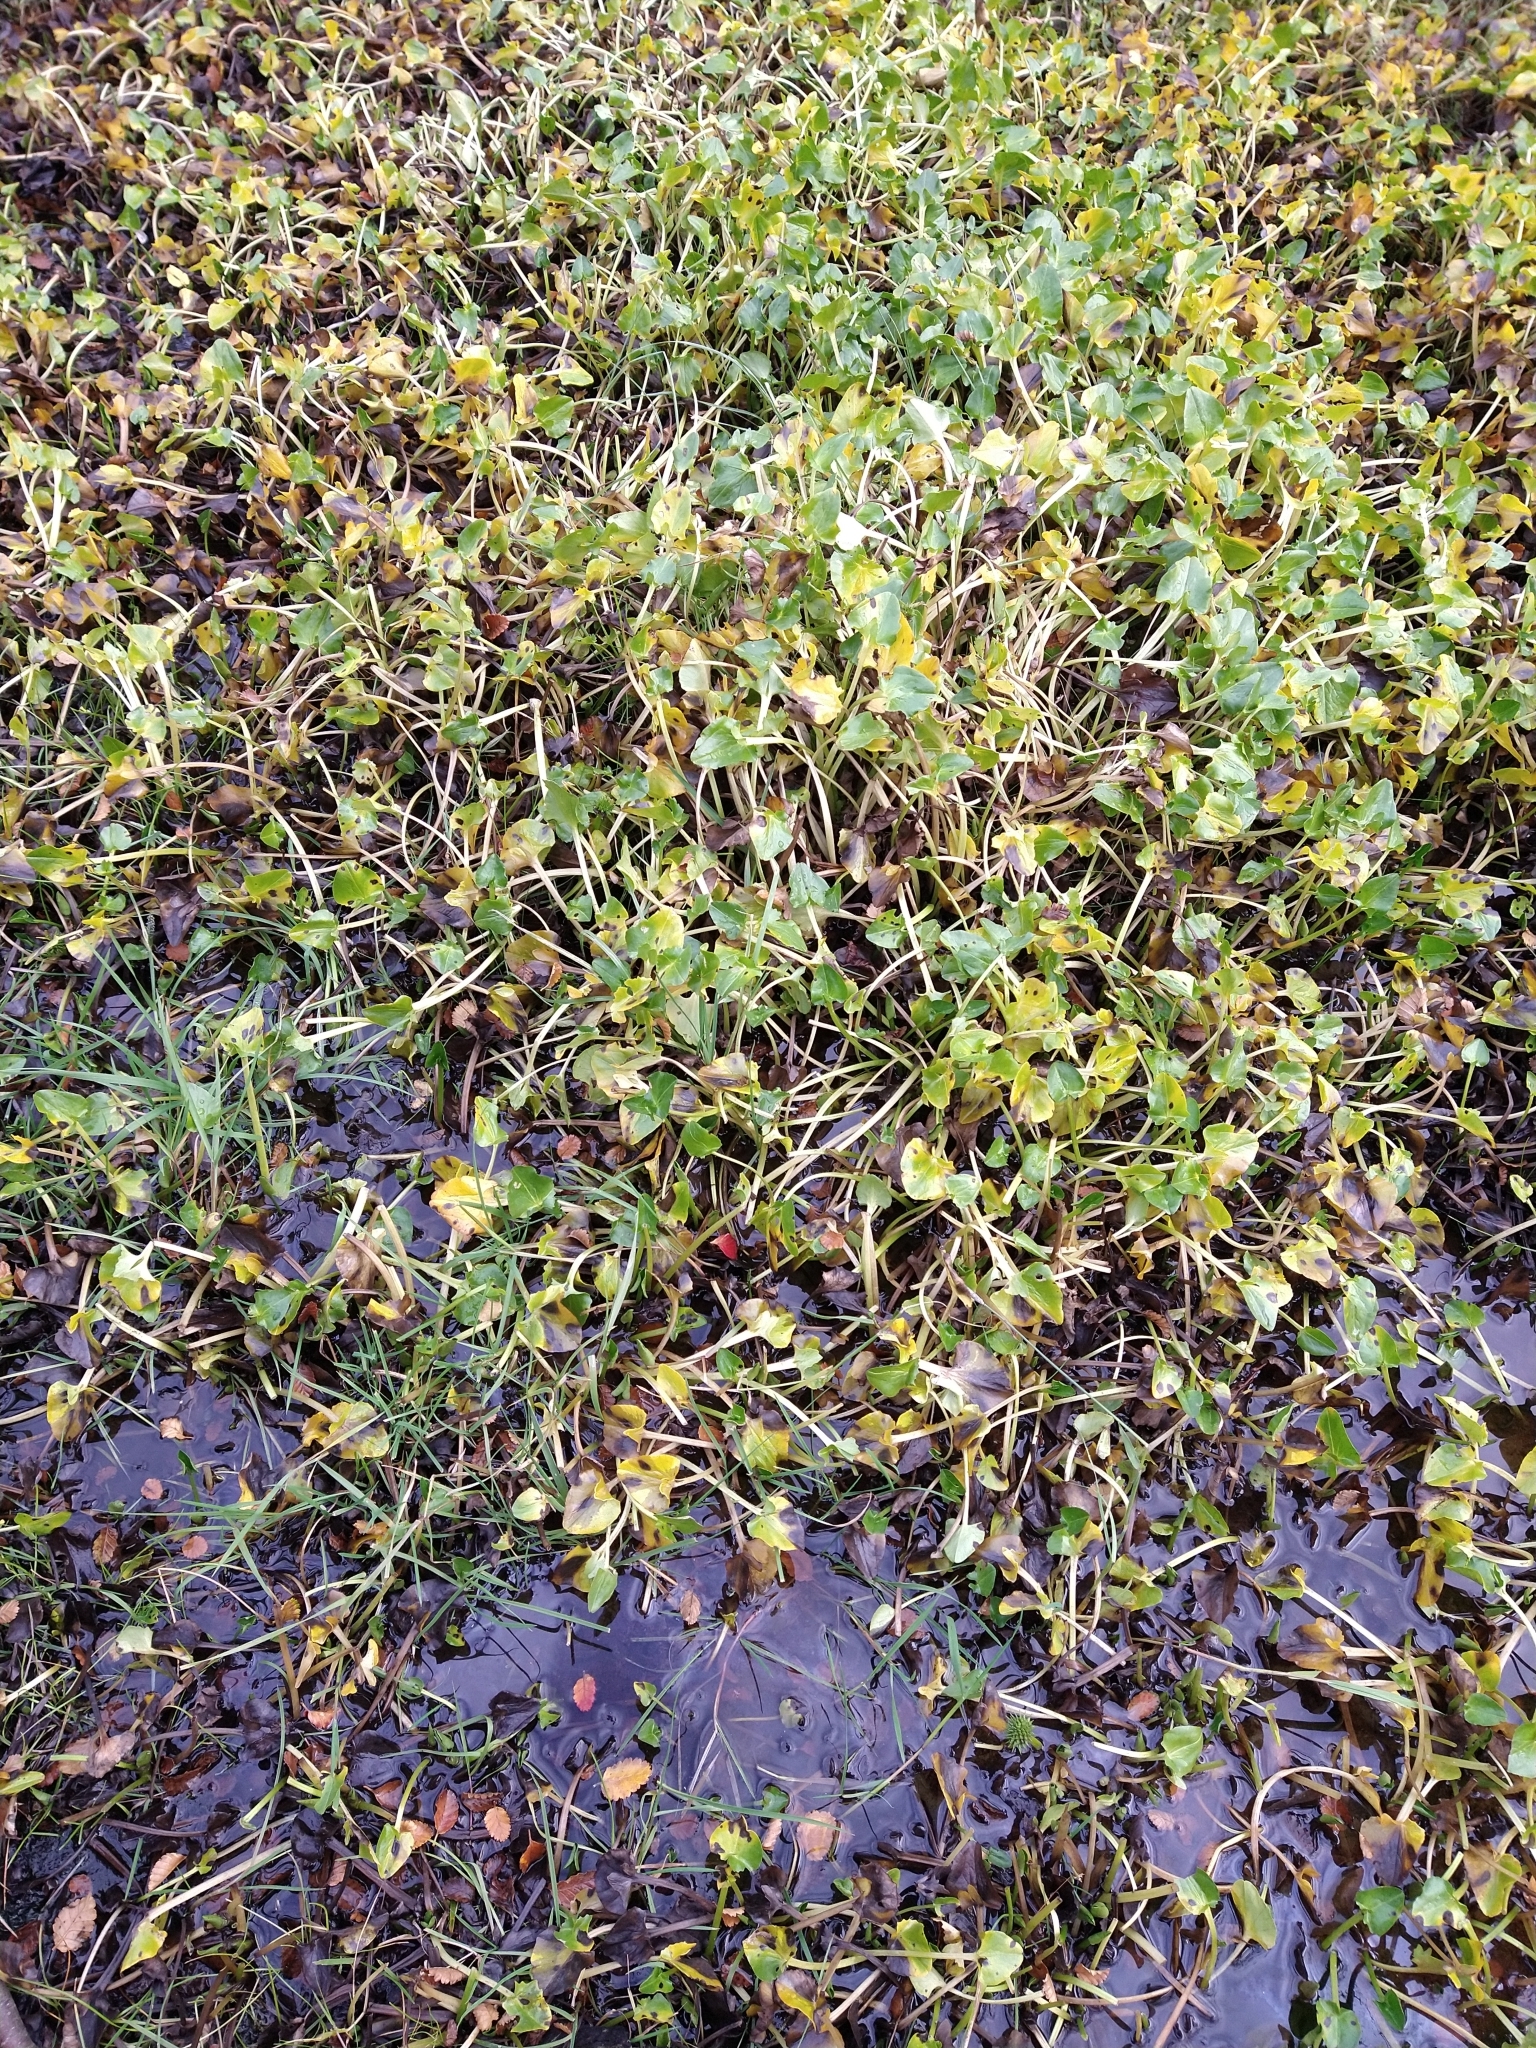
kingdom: Plantae
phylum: Tracheophyta
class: Magnoliopsida
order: Ranunculales
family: Ranunculaceae
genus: Caltha
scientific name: Caltha sagittata
